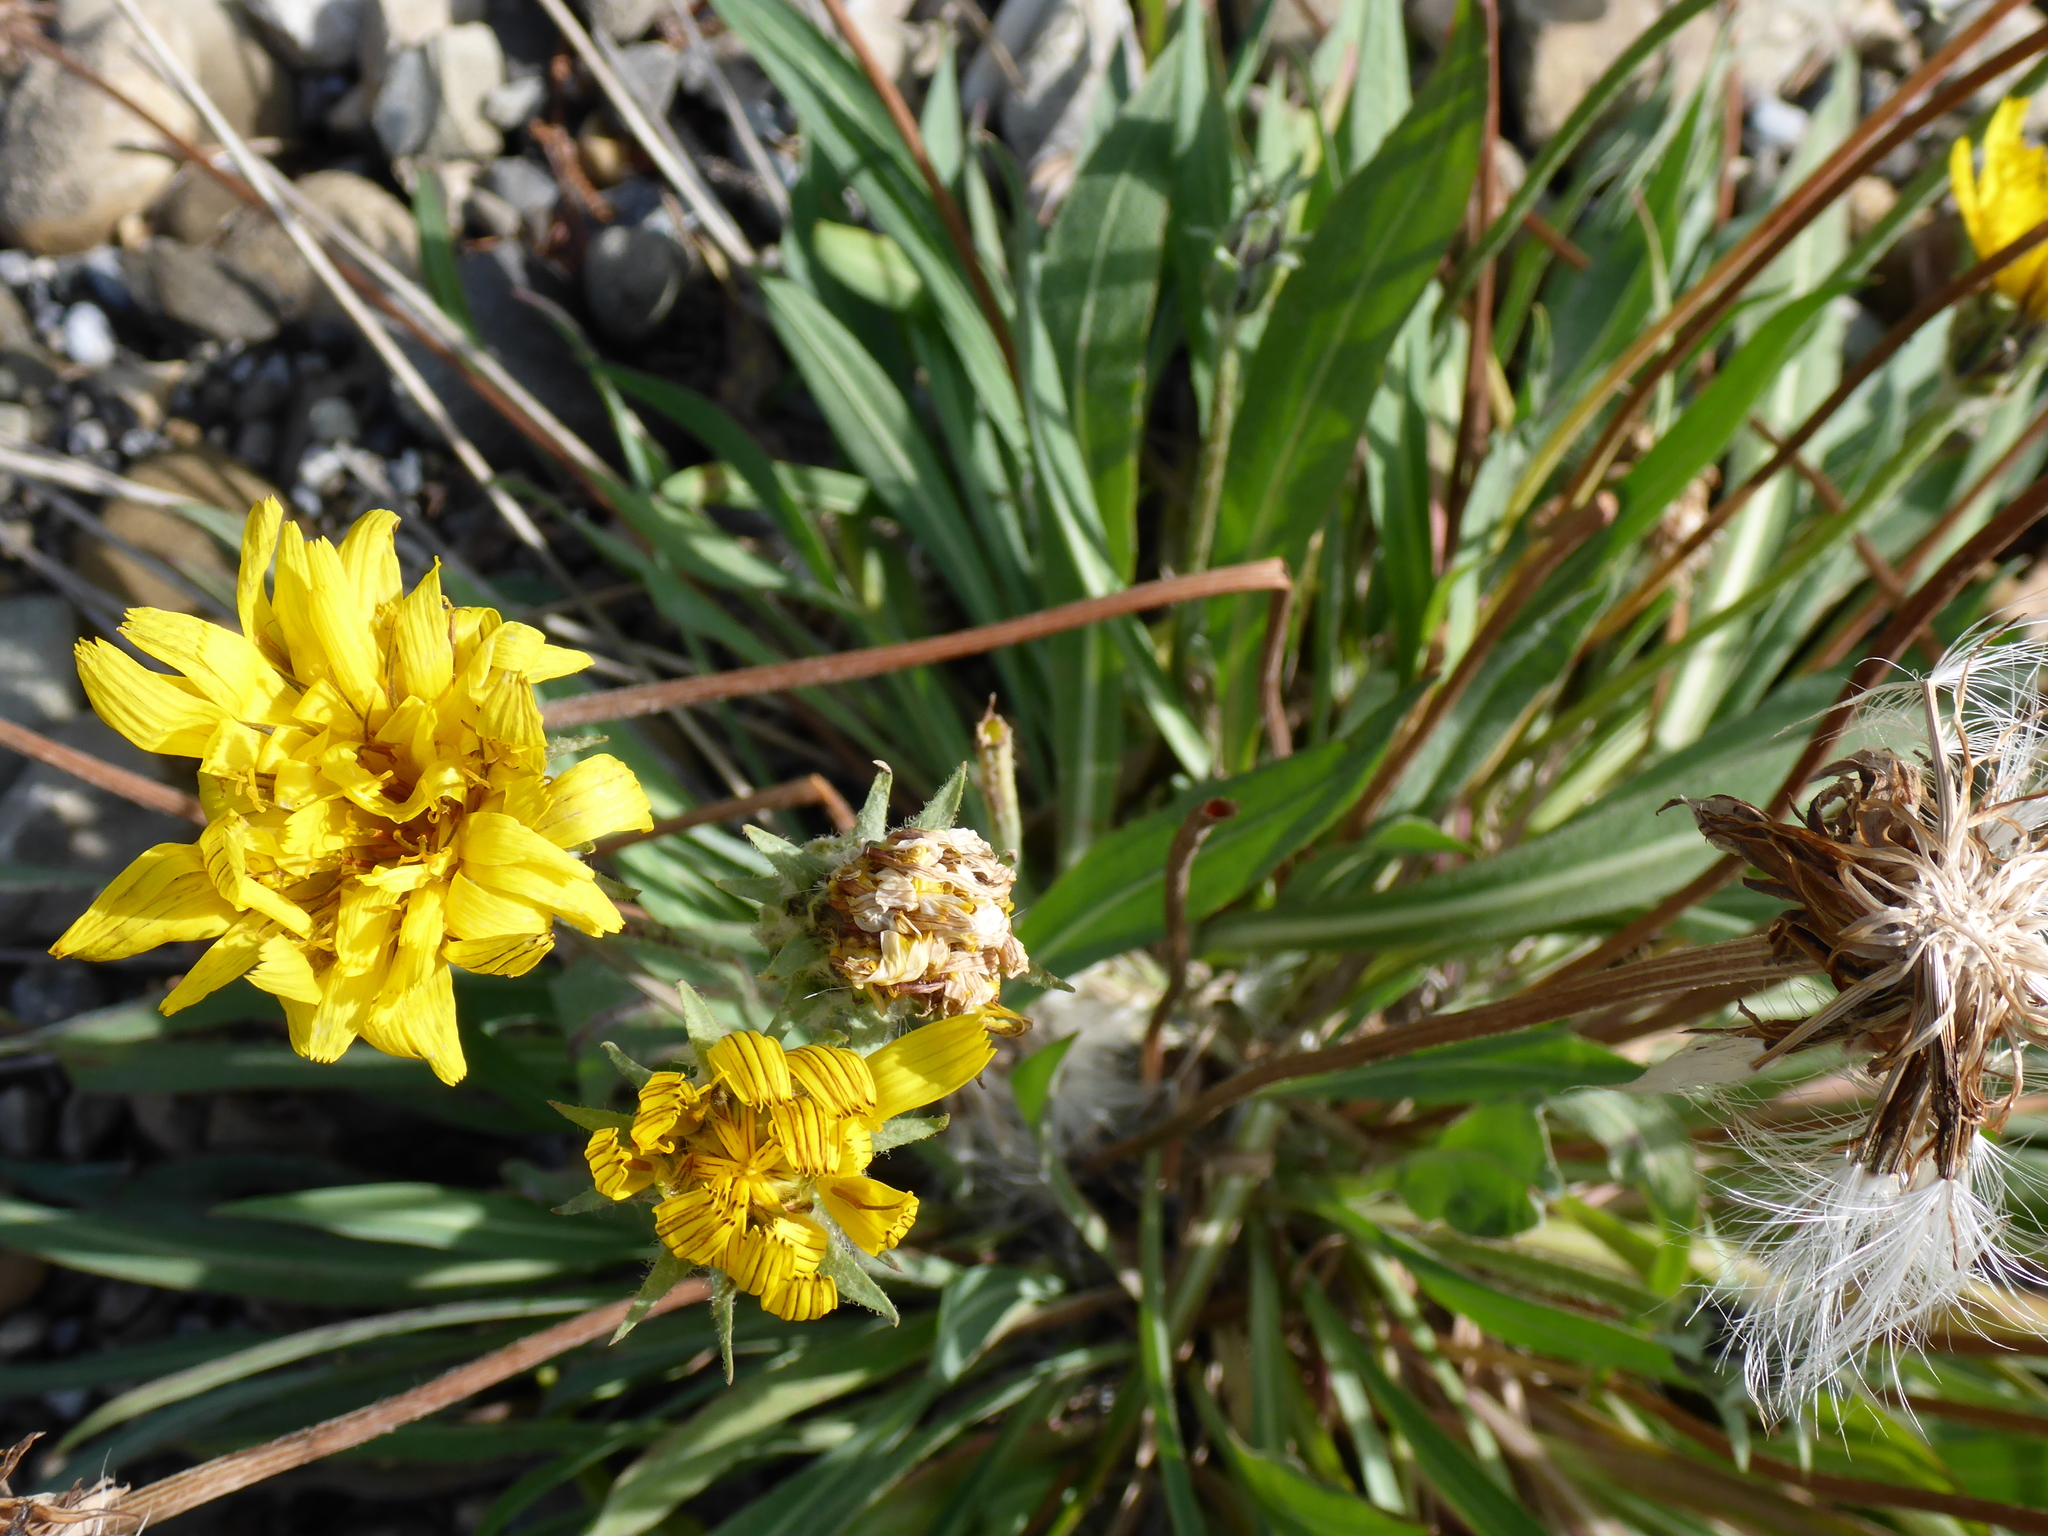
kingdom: Plantae
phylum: Tracheophyta
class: Magnoliopsida
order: Asterales
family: Asteraceae
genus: Agoseris
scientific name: Agoseris glauca
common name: Prairie agoseris
